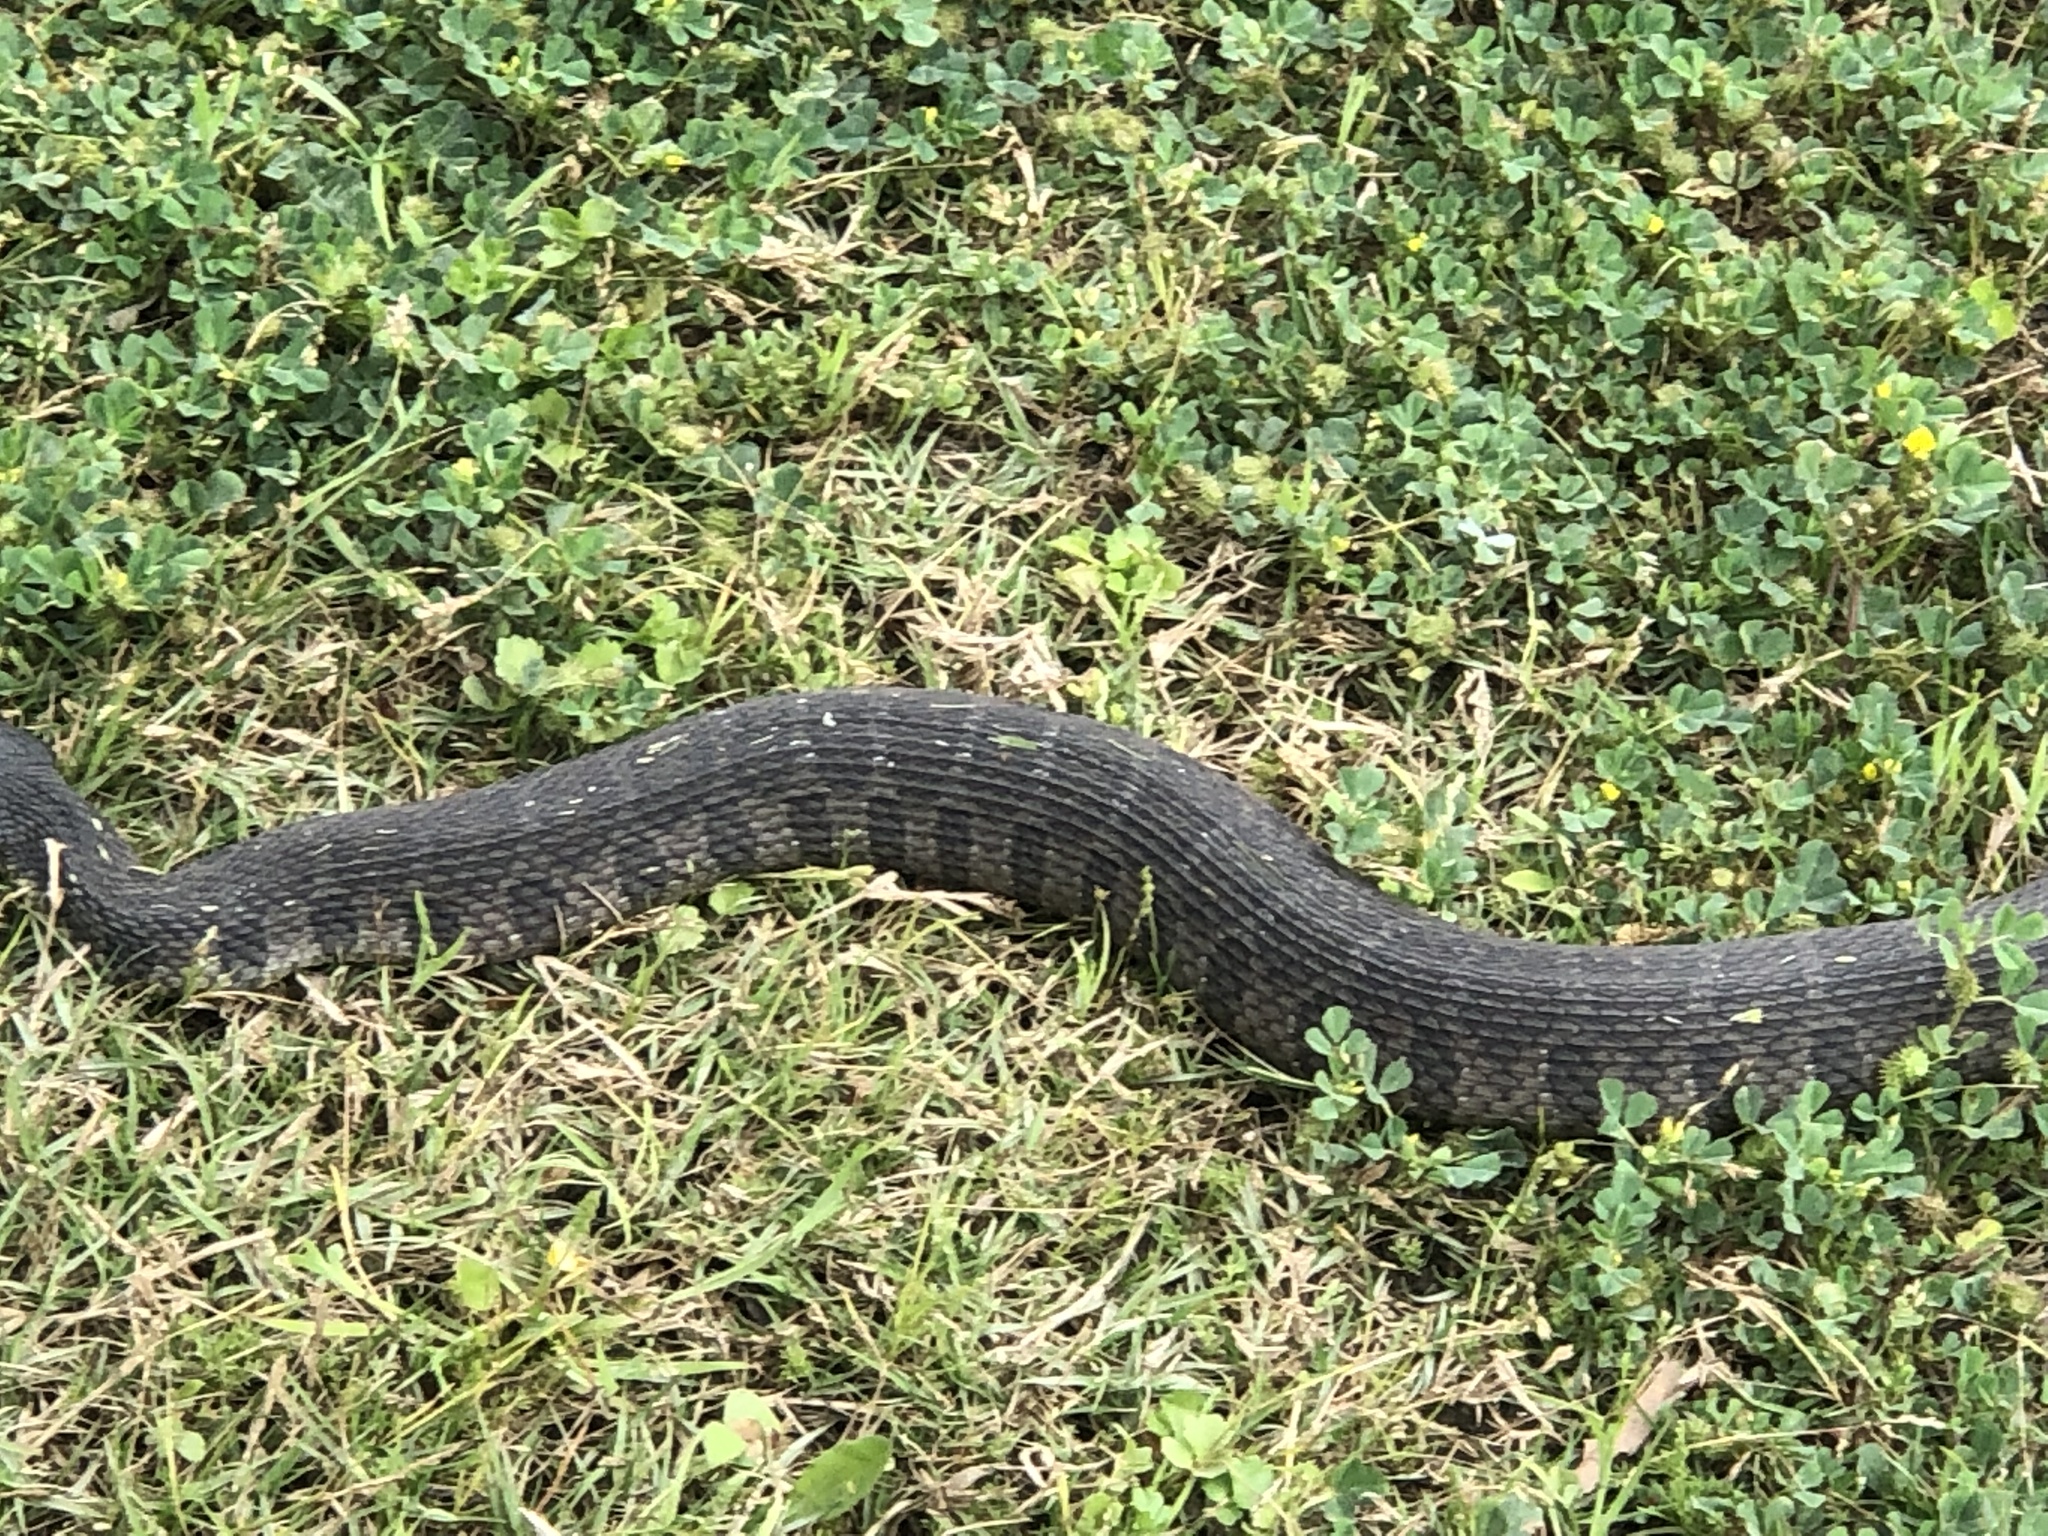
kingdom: Animalia
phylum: Chordata
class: Squamata
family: Colubridae
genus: Nerodia
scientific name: Nerodia erythrogaster
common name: Plainbelly water snake
